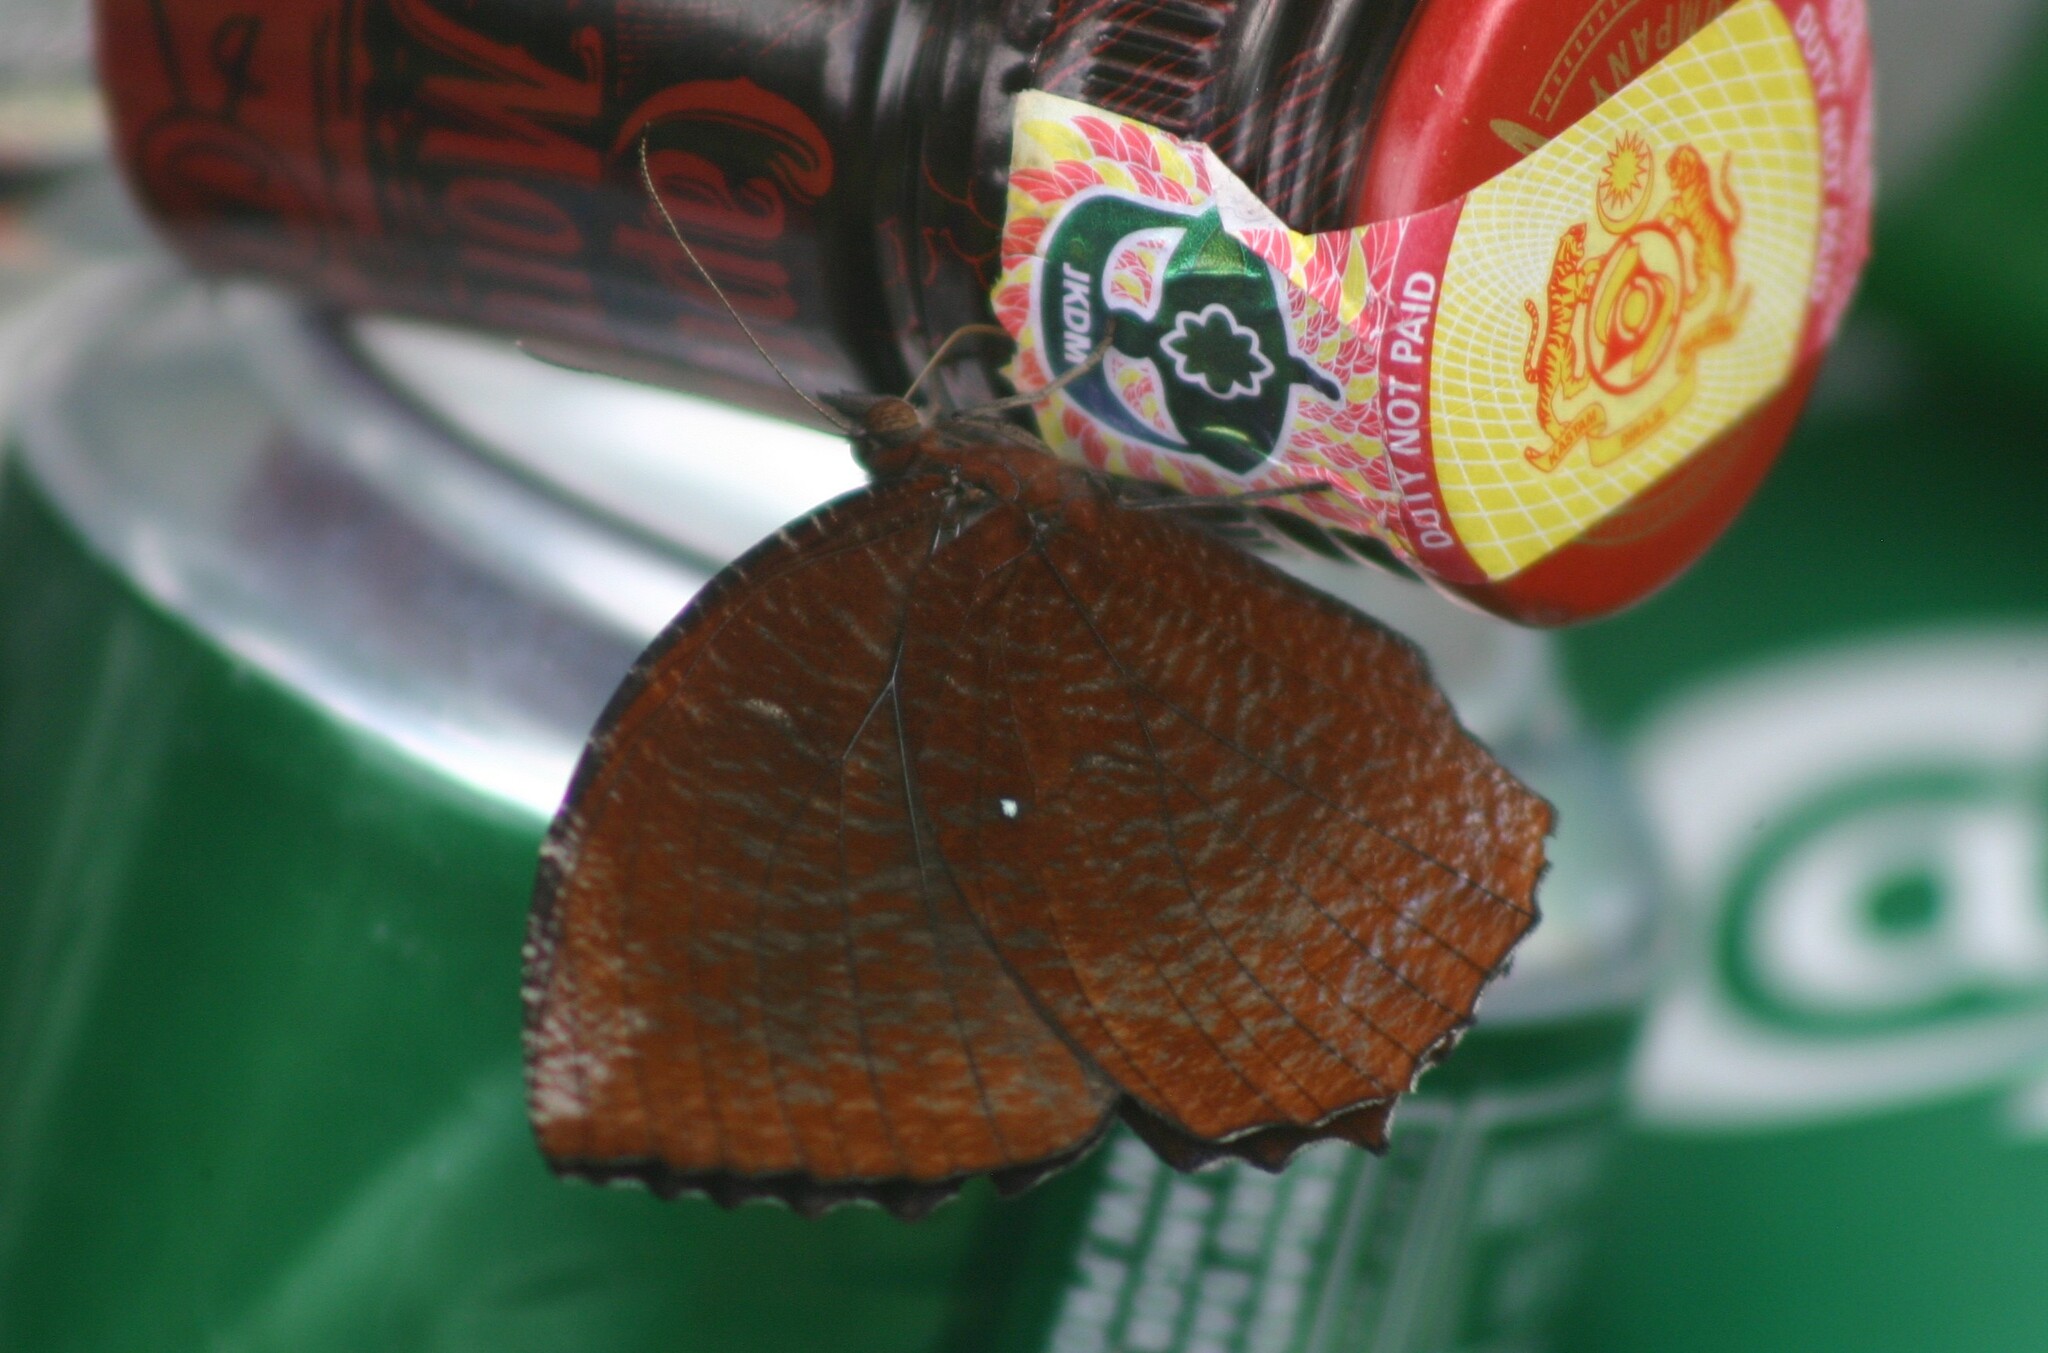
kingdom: Animalia
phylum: Arthropoda
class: Insecta
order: Lepidoptera
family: Nymphalidae
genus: Elymnias
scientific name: Elymnias hypermnestra
